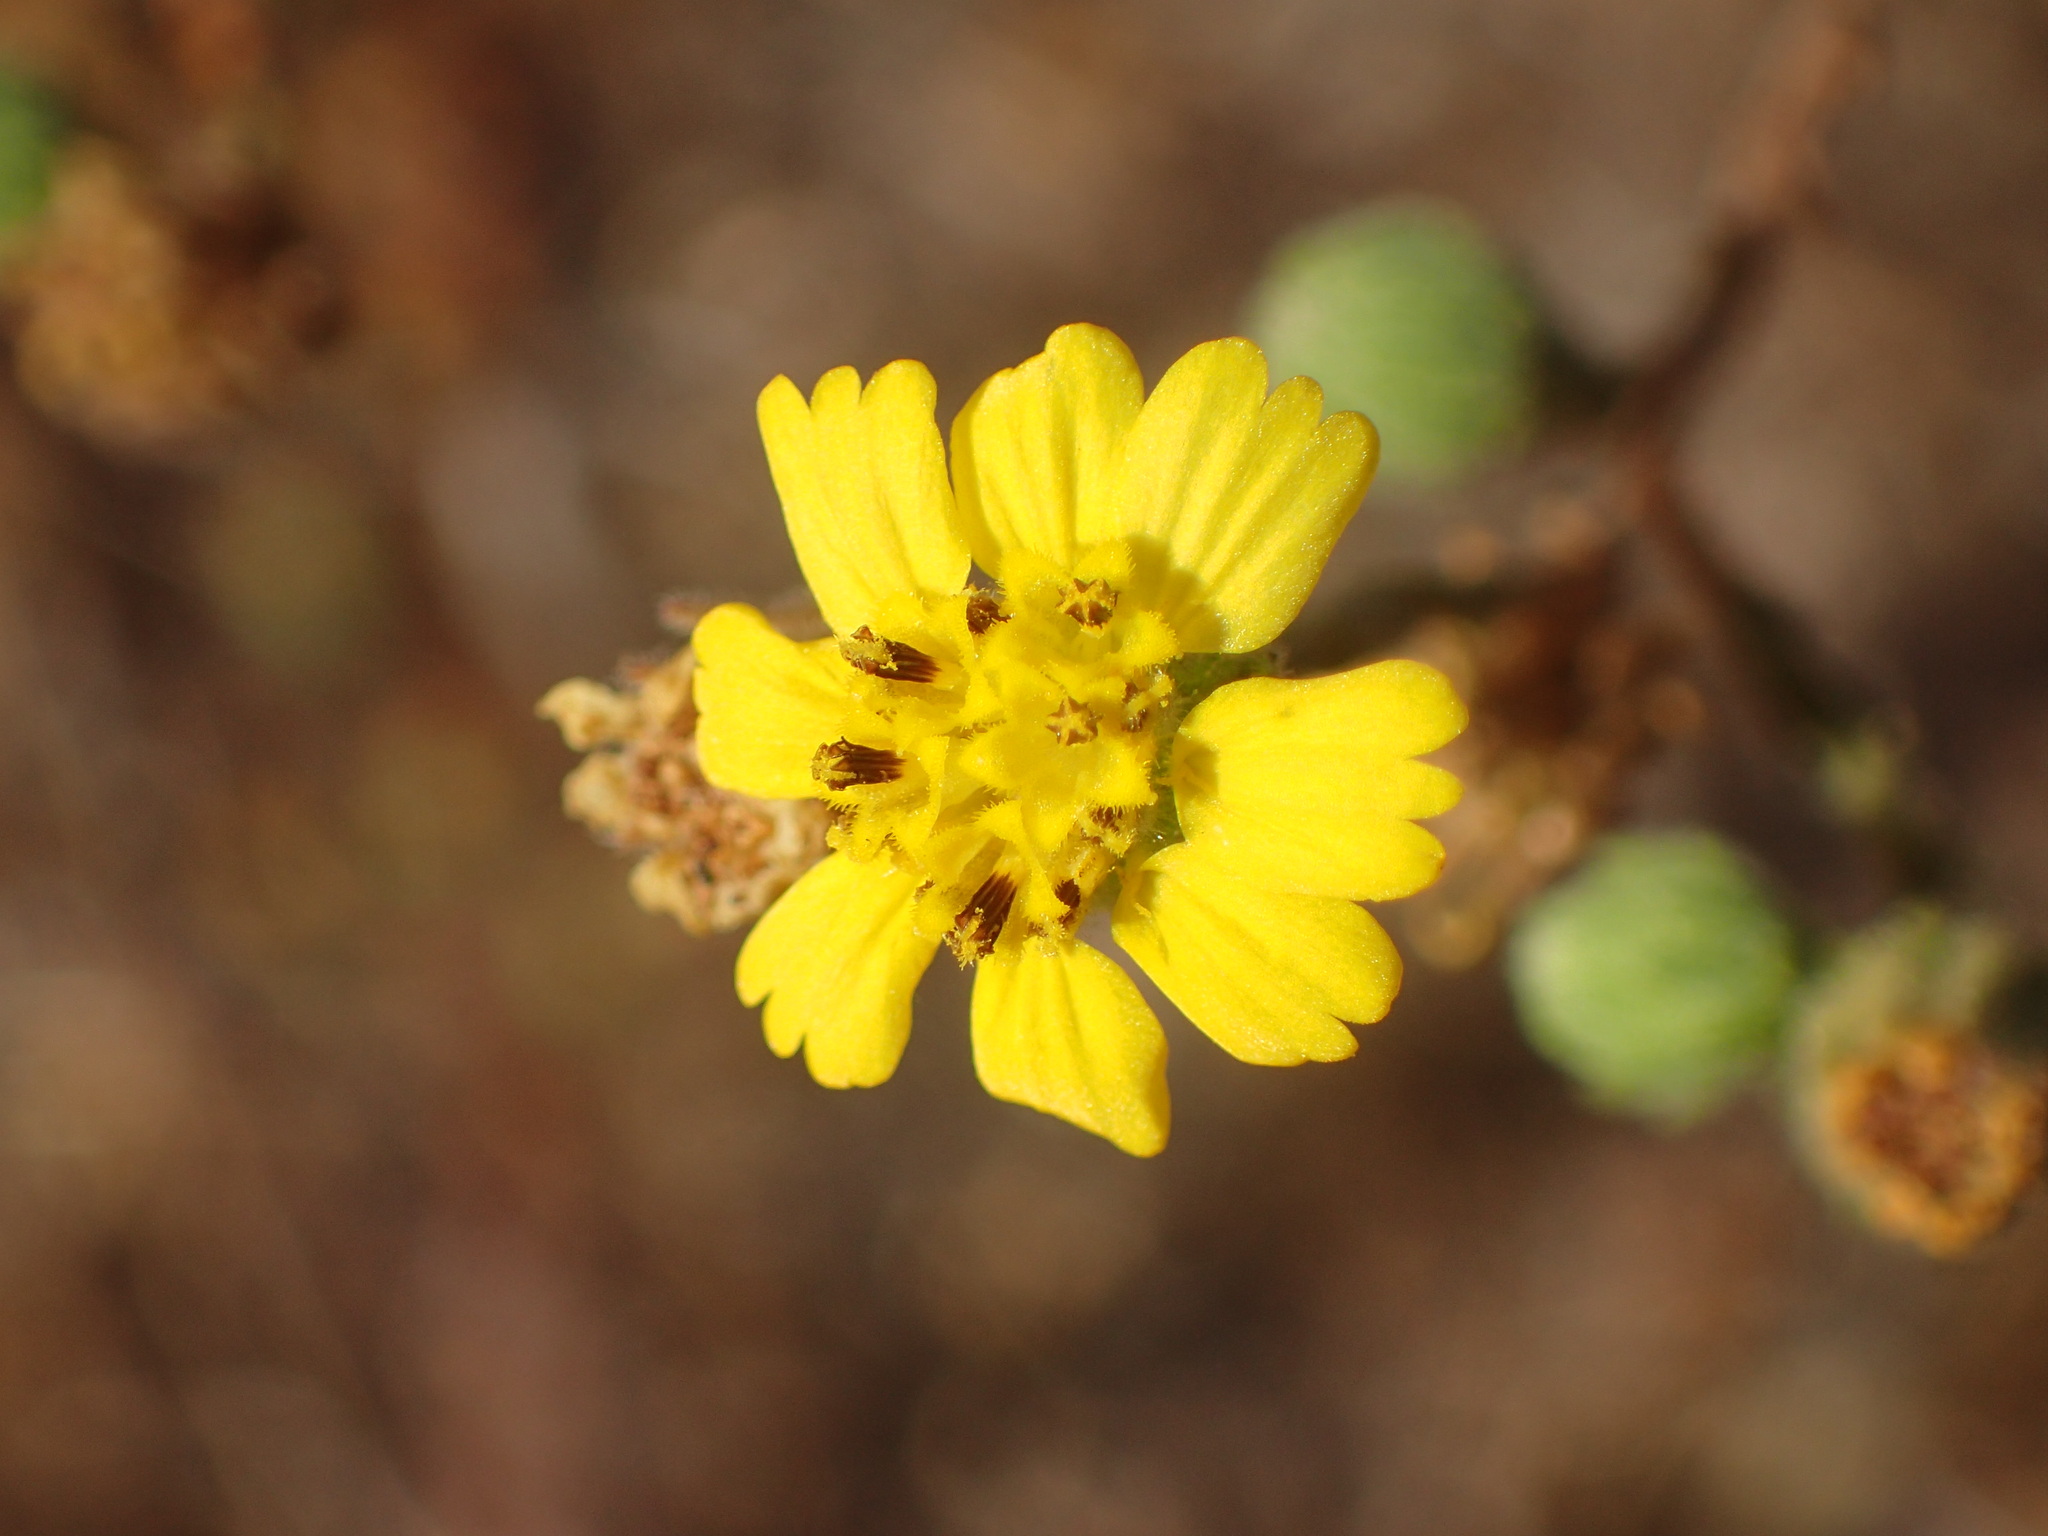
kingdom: Plantae
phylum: Tracheophyta
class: Magnoliopsida
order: Asterales
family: Asteraceae
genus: Deinandra
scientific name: Deinandra paniculata
